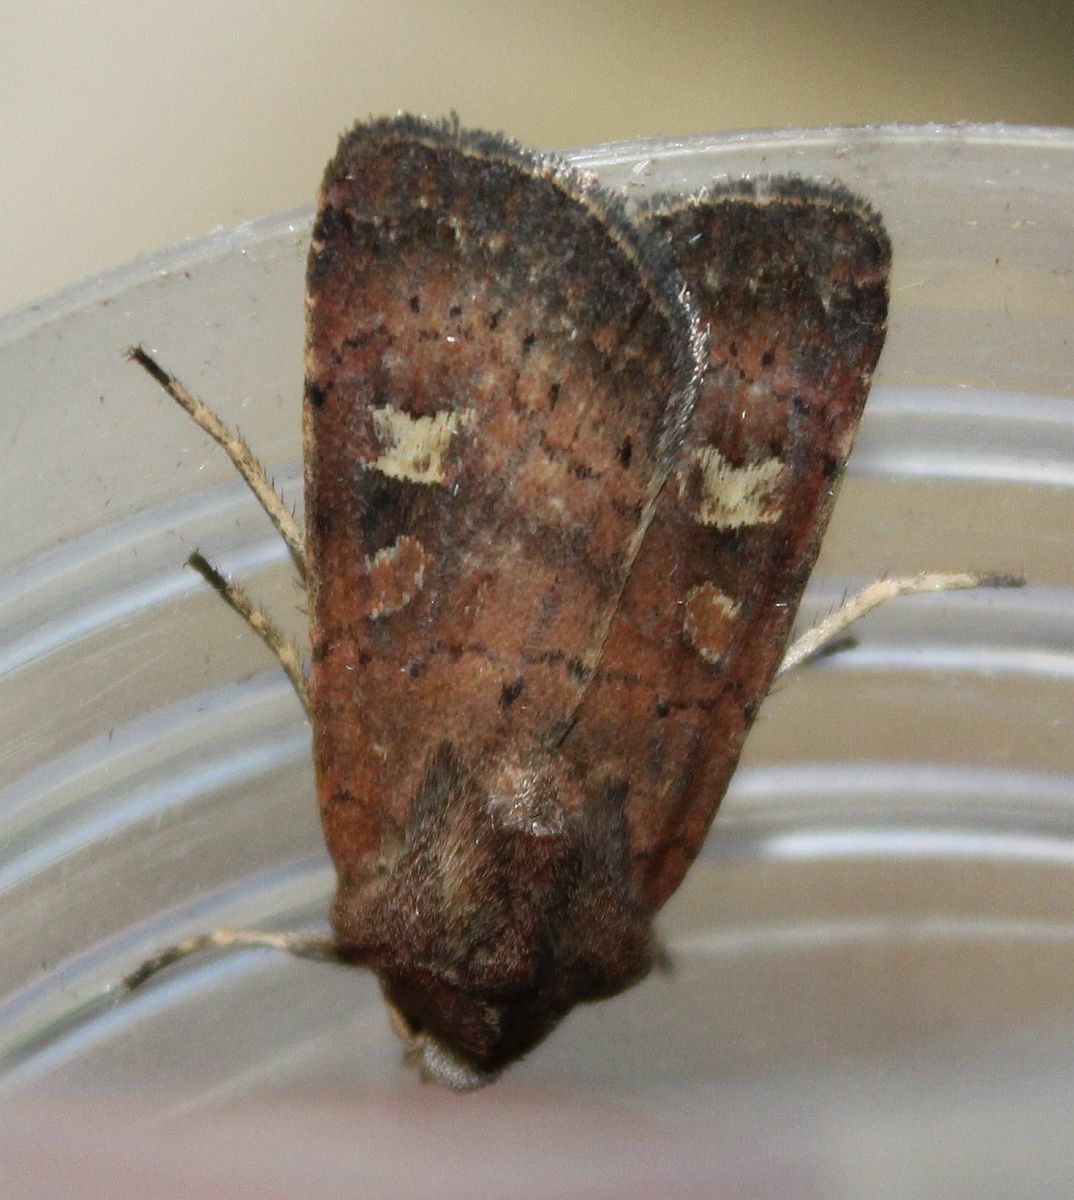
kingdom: Animalia
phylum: Arthropoda
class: Insecta
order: Lepidoptera
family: Noctuidae
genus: Xestia
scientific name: Xestia xanthographa
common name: Square-spot rustic
